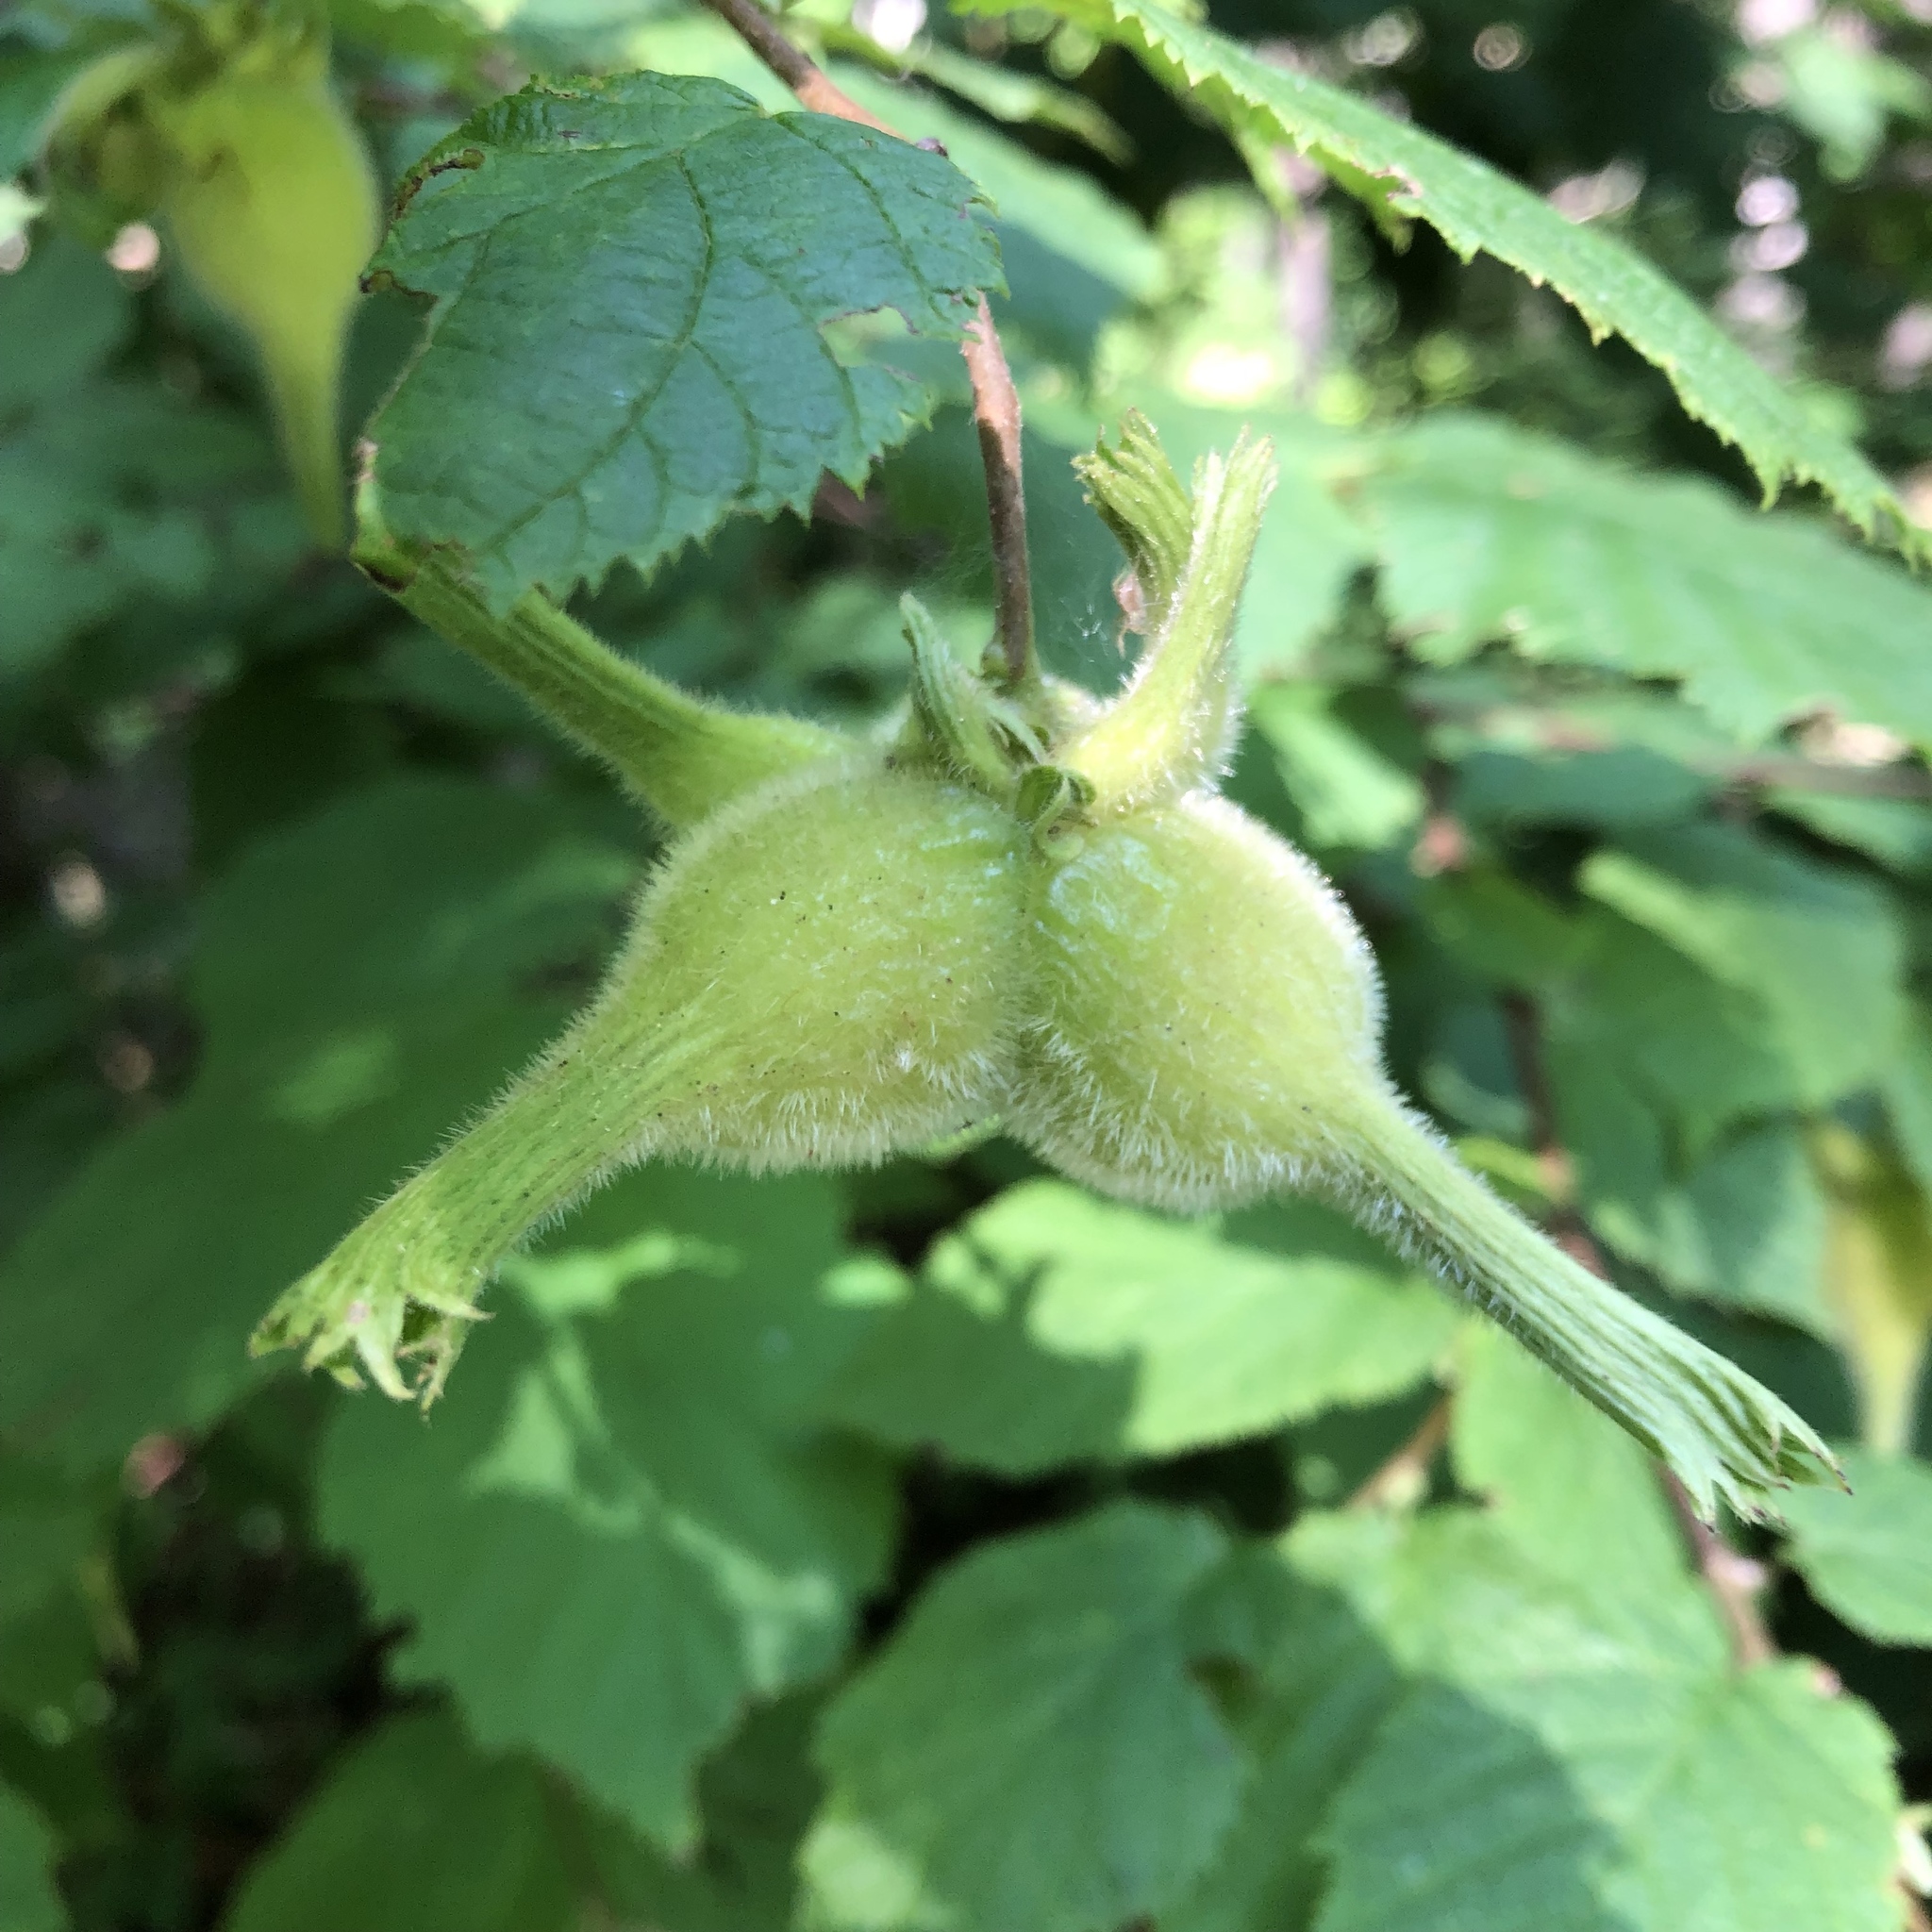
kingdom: Plantae
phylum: Tracheophyta
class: Magnoliopsida
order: Fagales
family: Betulaceae
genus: Corylus
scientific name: Corylus cornuta
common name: Beaked hazel
